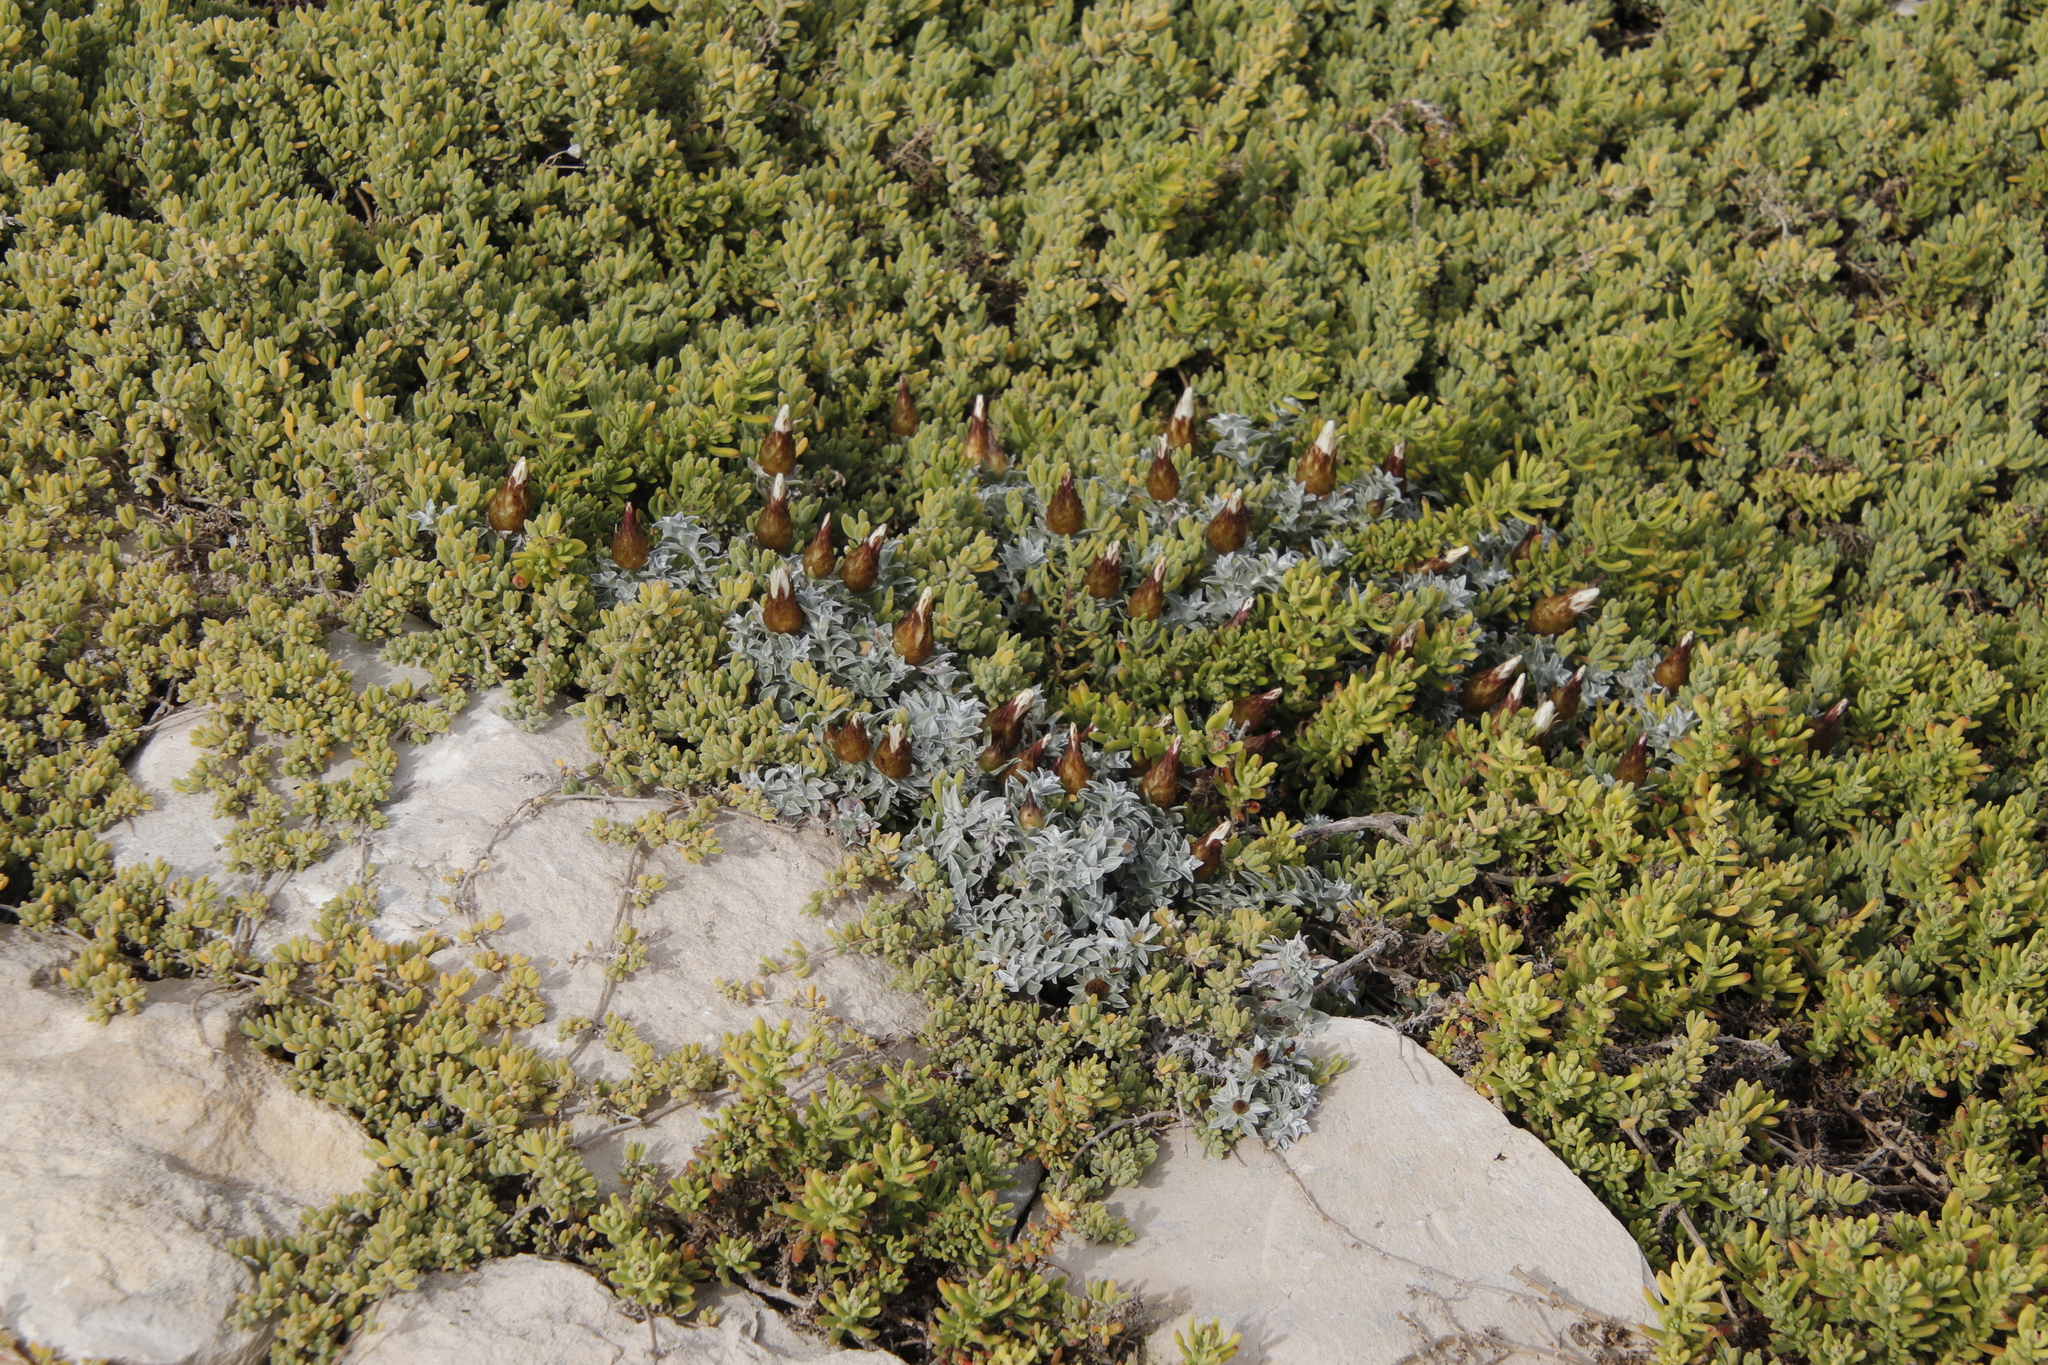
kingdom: Plantae
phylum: Tracheophyta
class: Magnoliopsida
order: Asterales
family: Asteraceae
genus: Helichrysum
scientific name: Helichrysum retortum
